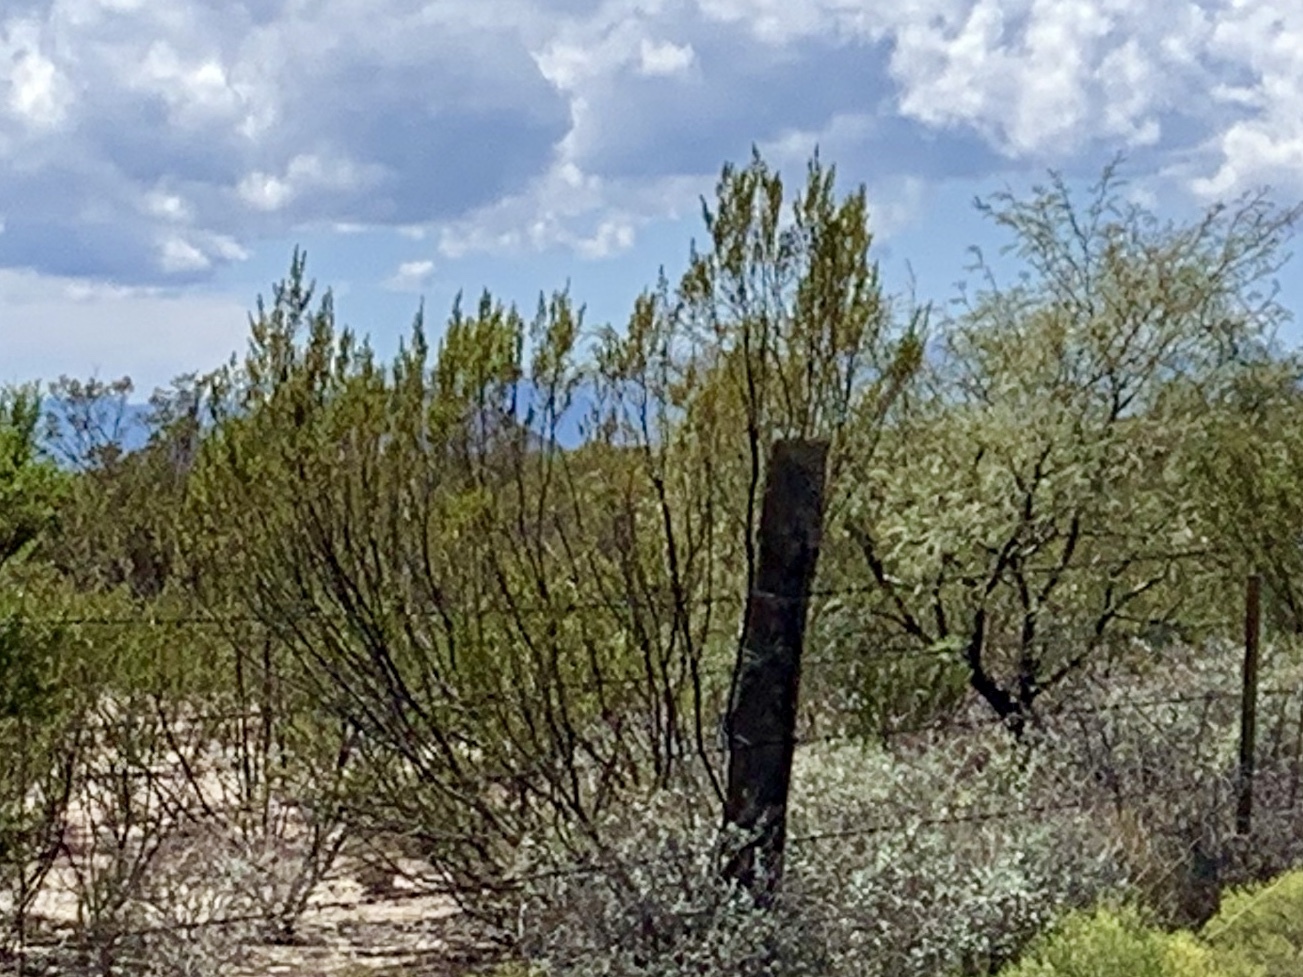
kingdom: Plantae
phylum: Tracheophyta
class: Magnoliopsida
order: Zygophyllales
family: Zygophyllaceae
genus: Larrea
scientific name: Larrea tridentata
